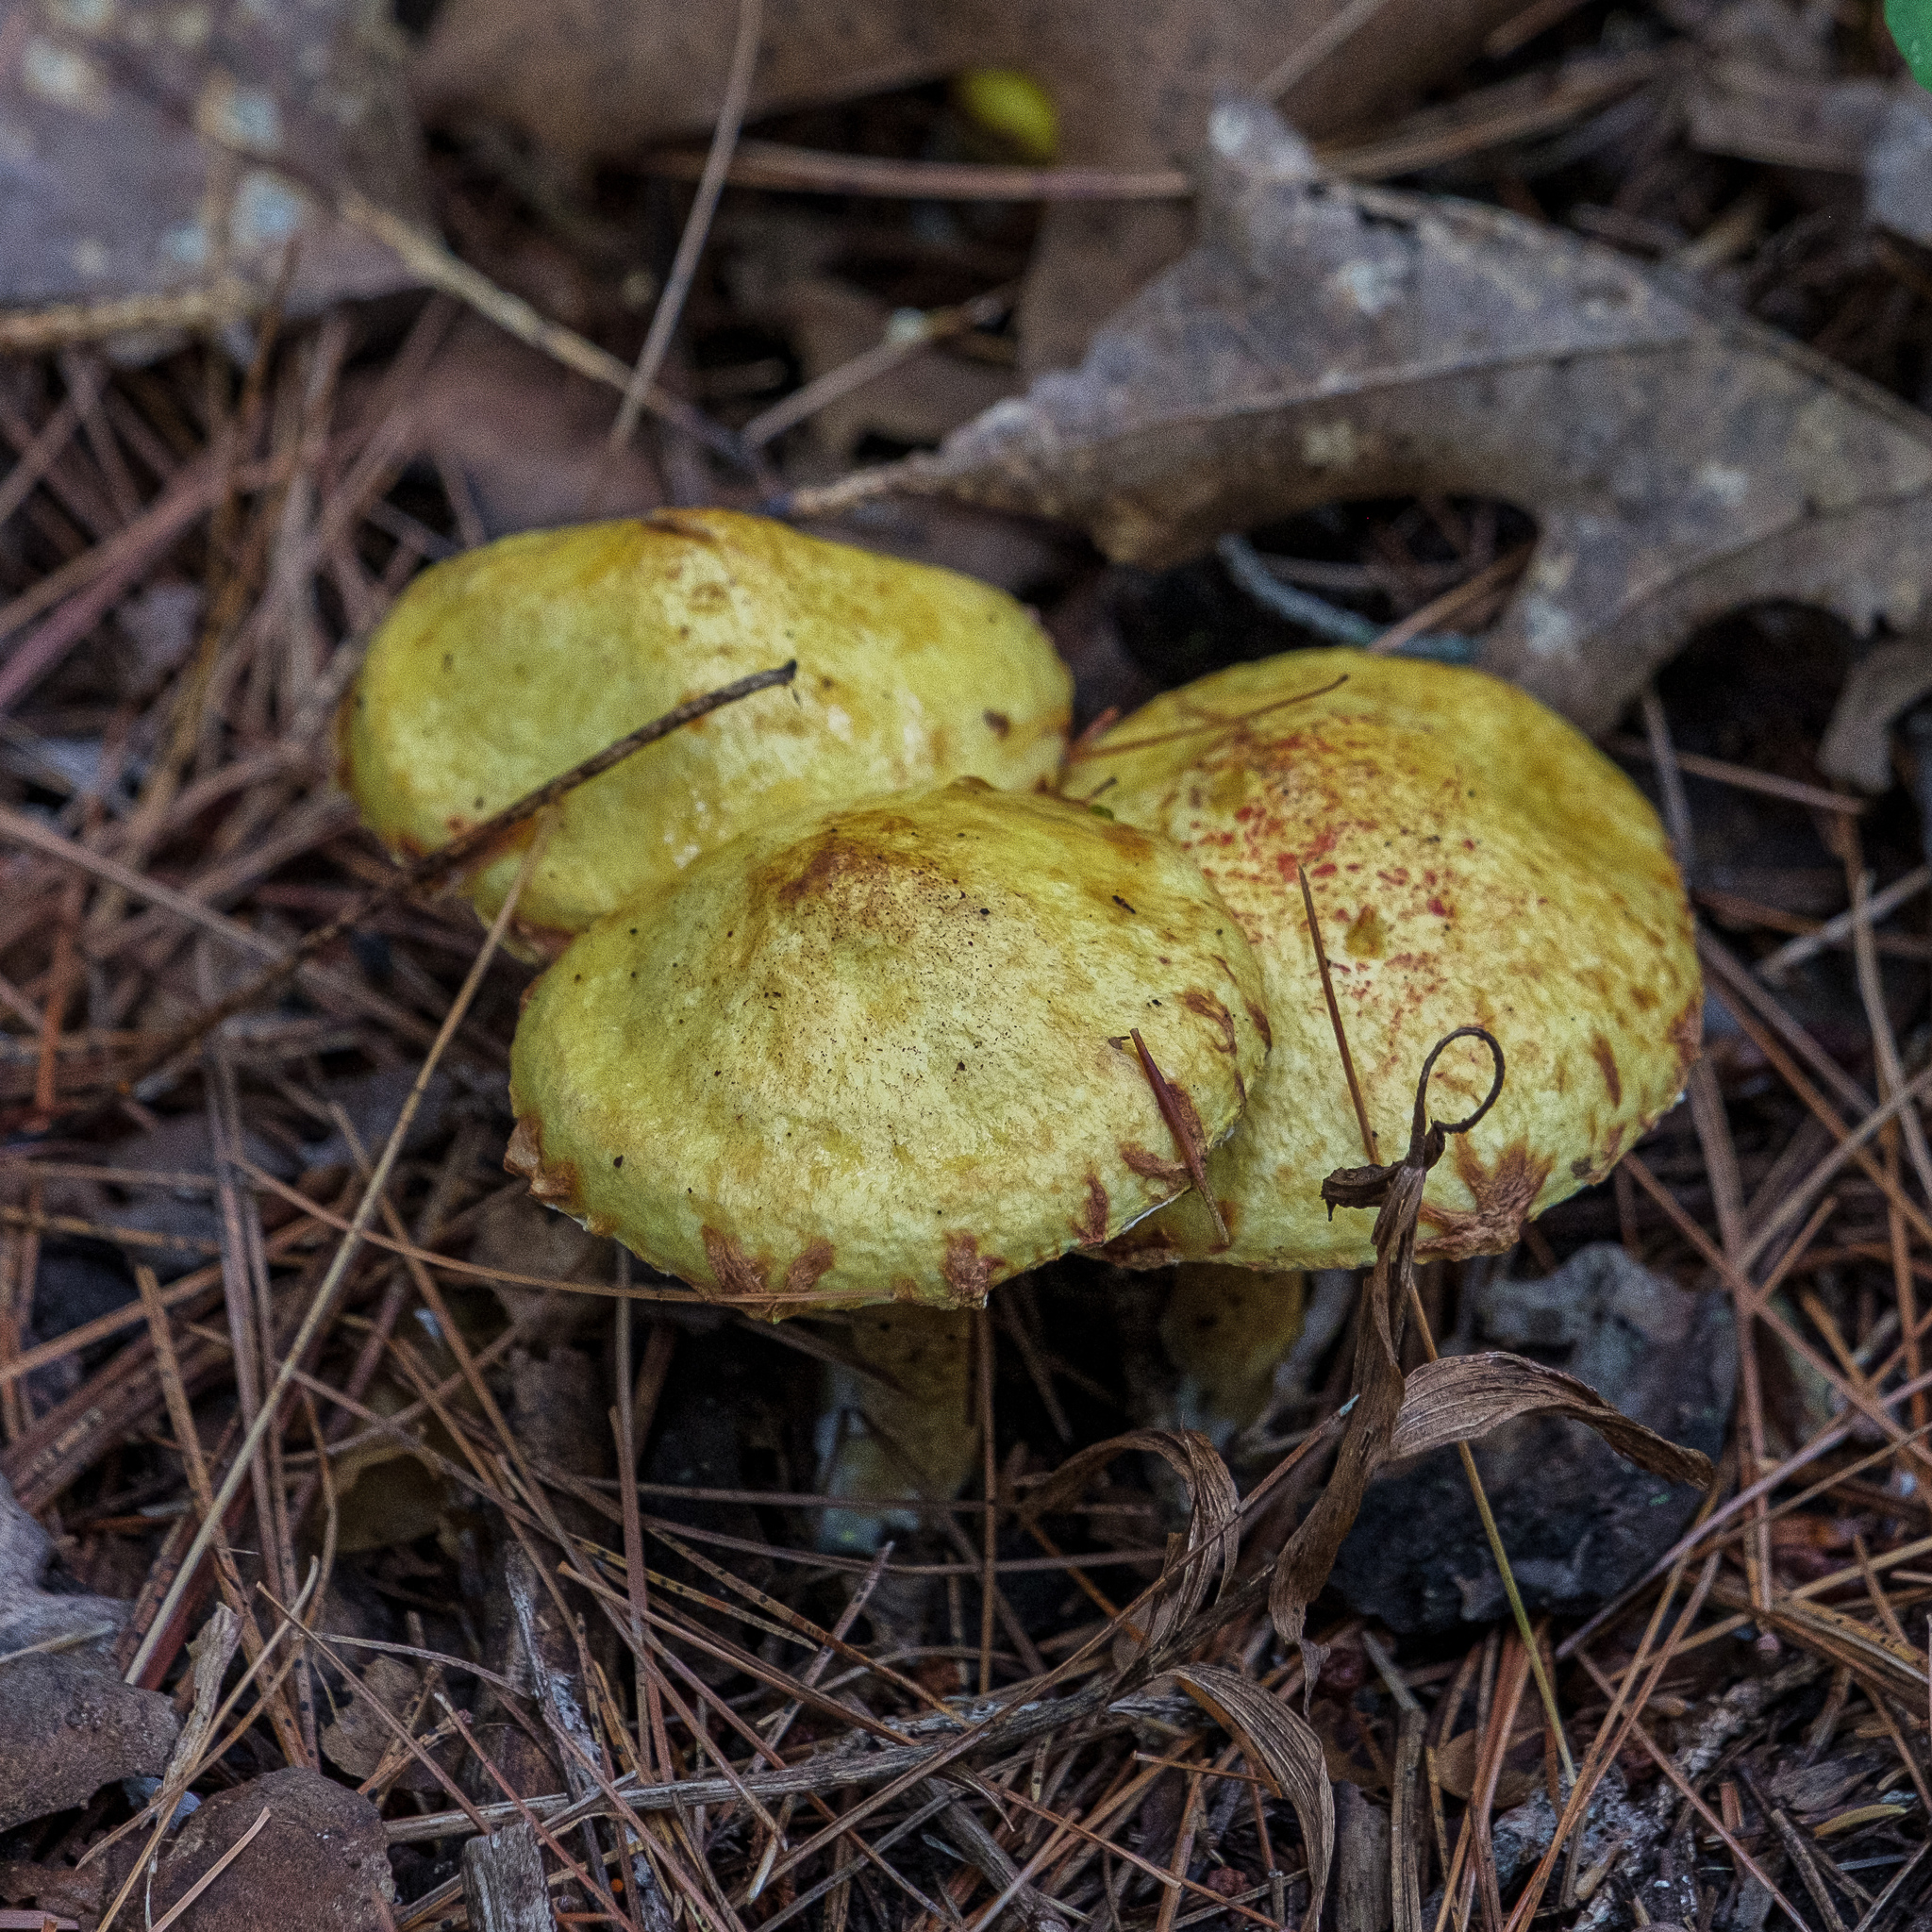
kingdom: Fungi
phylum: Basidiomycota
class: Agaricomycetes
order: Boletales
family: Suillaceae
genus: Suillus
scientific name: Suillus americanus
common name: Chicken fat mushroom
